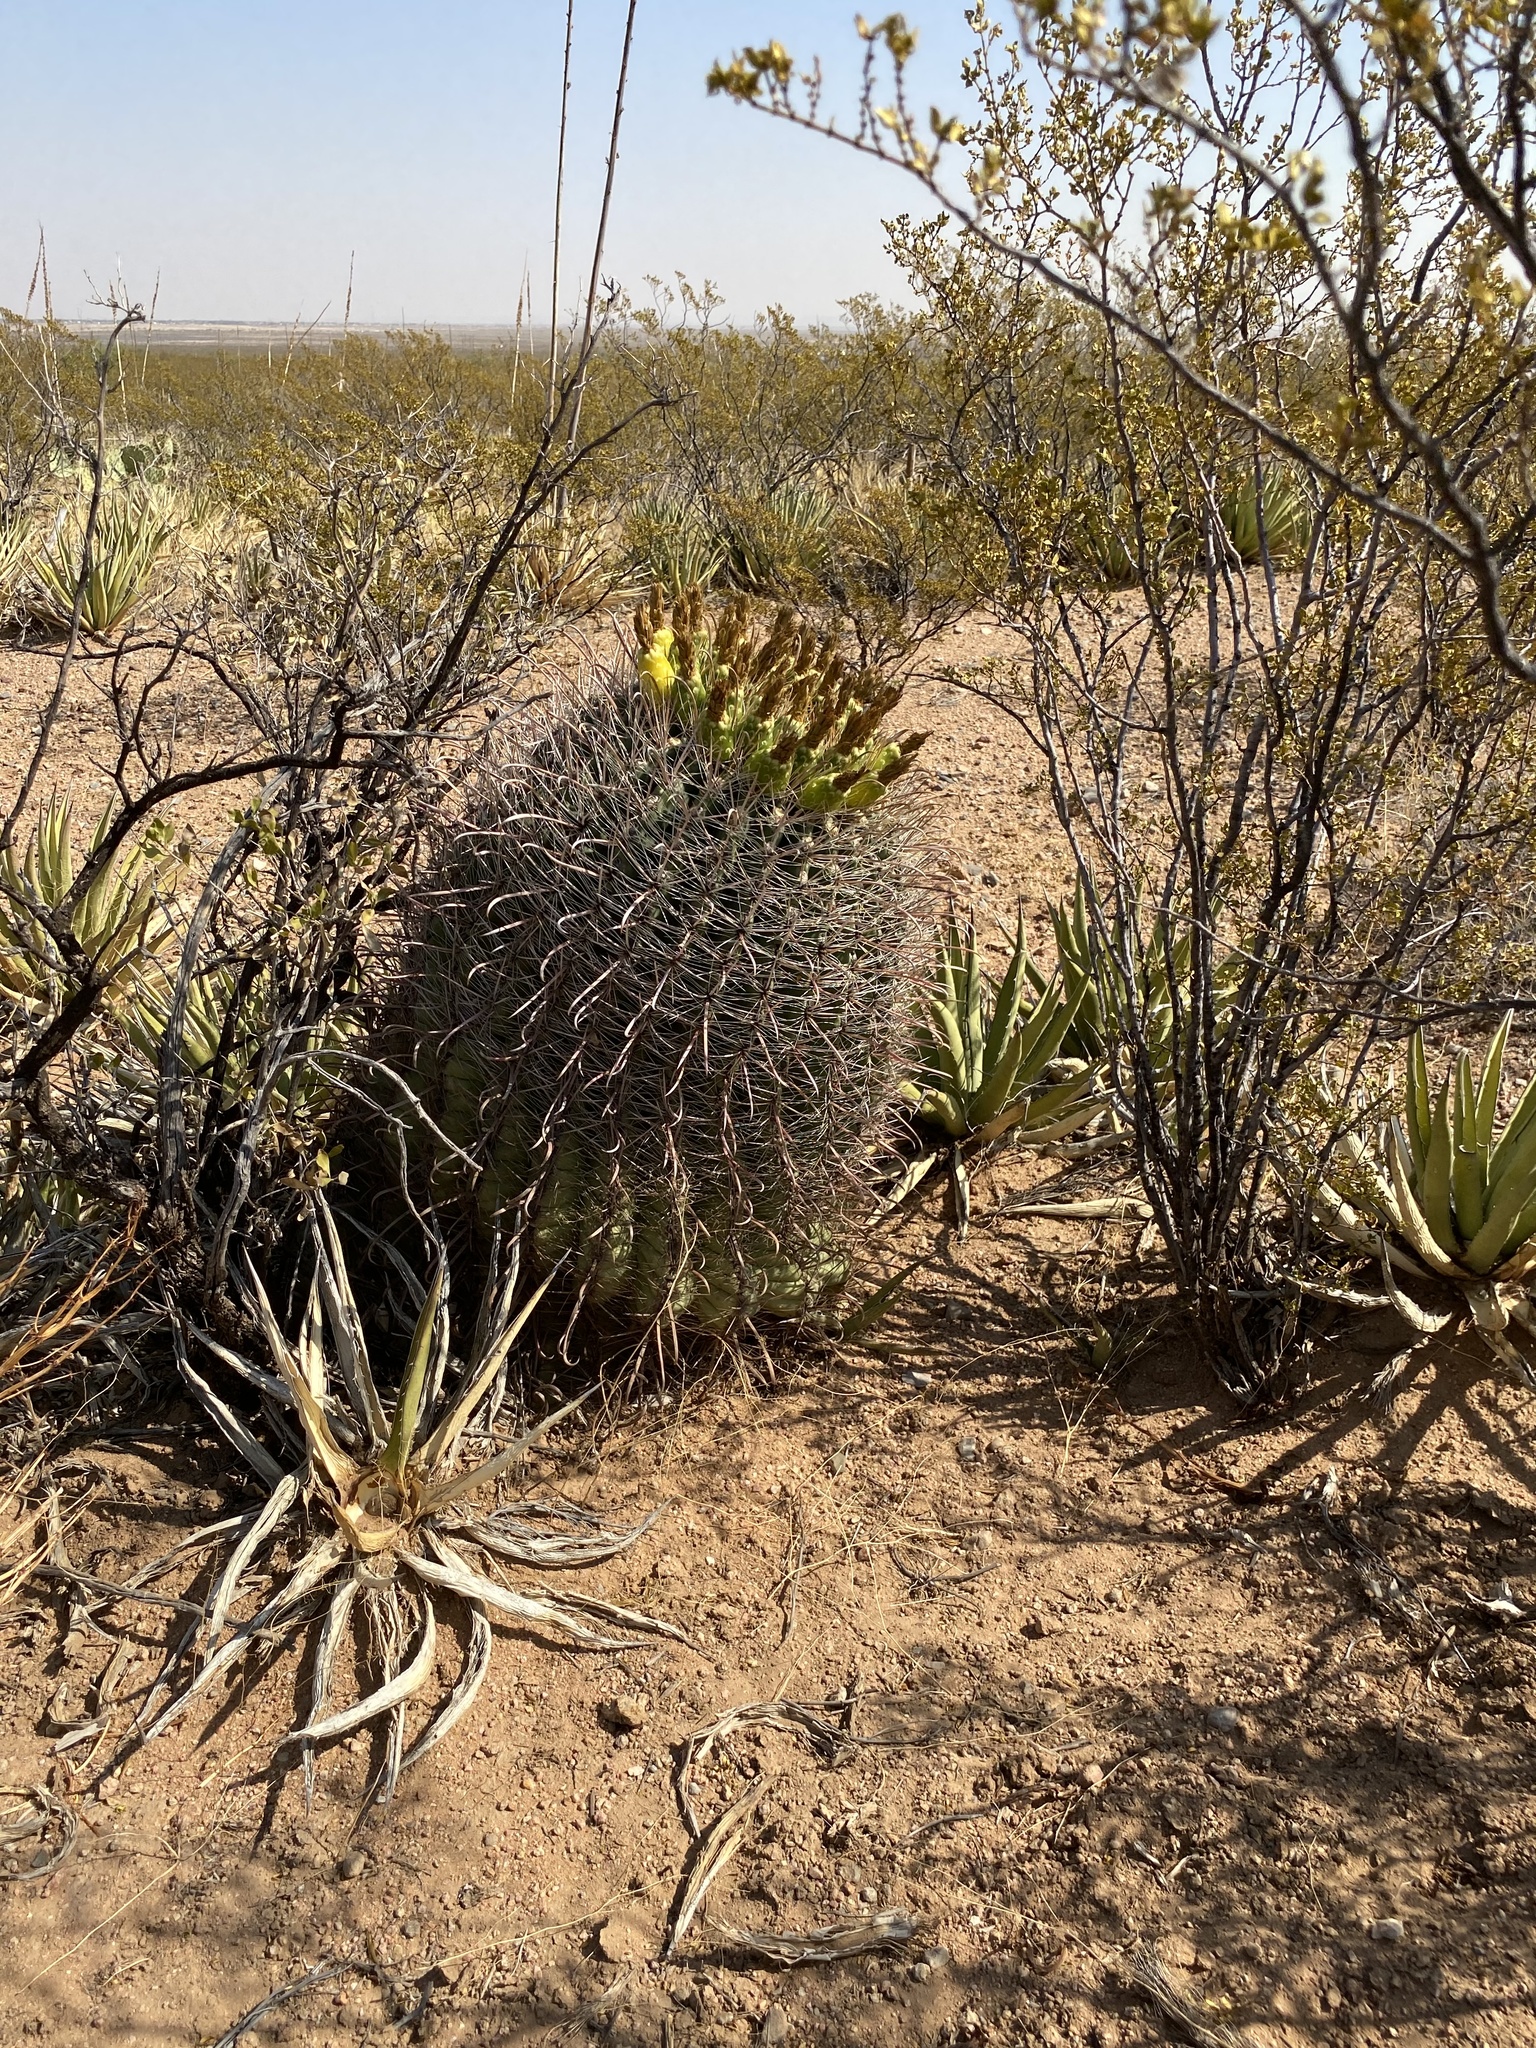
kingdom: Plantae
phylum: Tracheophyta
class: Magnoliopsida
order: Caryophyllales
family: Cactaceae
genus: Ferocactus
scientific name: Ferocactus wislizeni
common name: Candy barrel cactus
